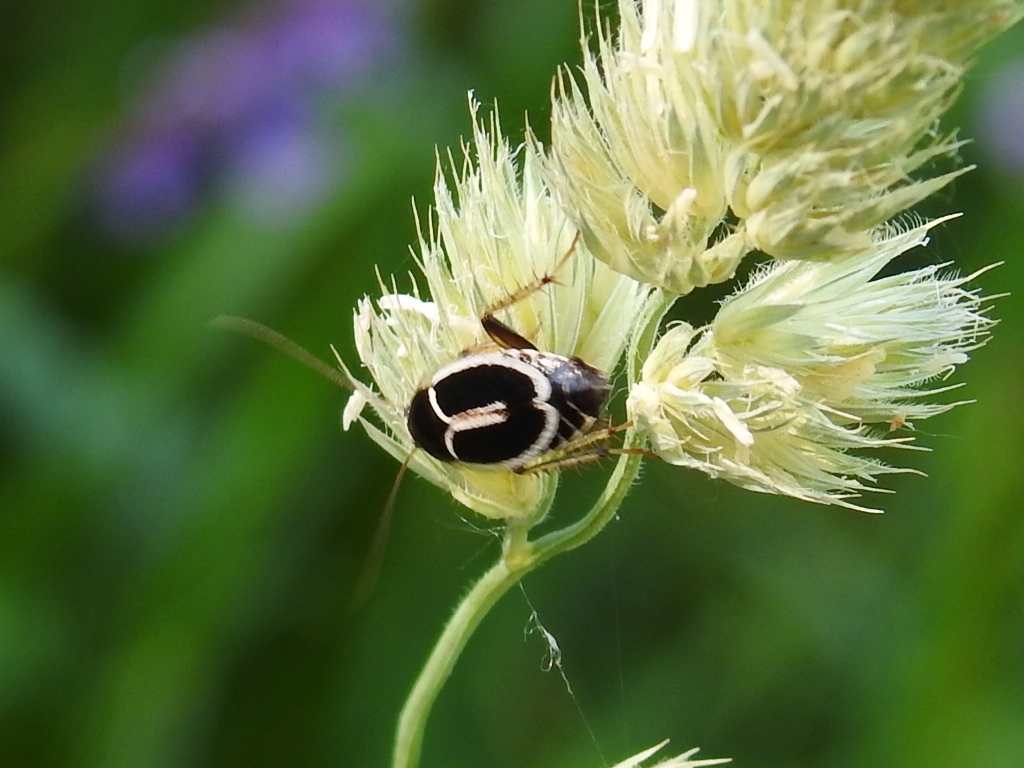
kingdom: Animalia
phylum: Arthropoda
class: Insecta
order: Blattodea
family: Ectobiidae
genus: Phyllodromica
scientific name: Phyllodromica marginata
